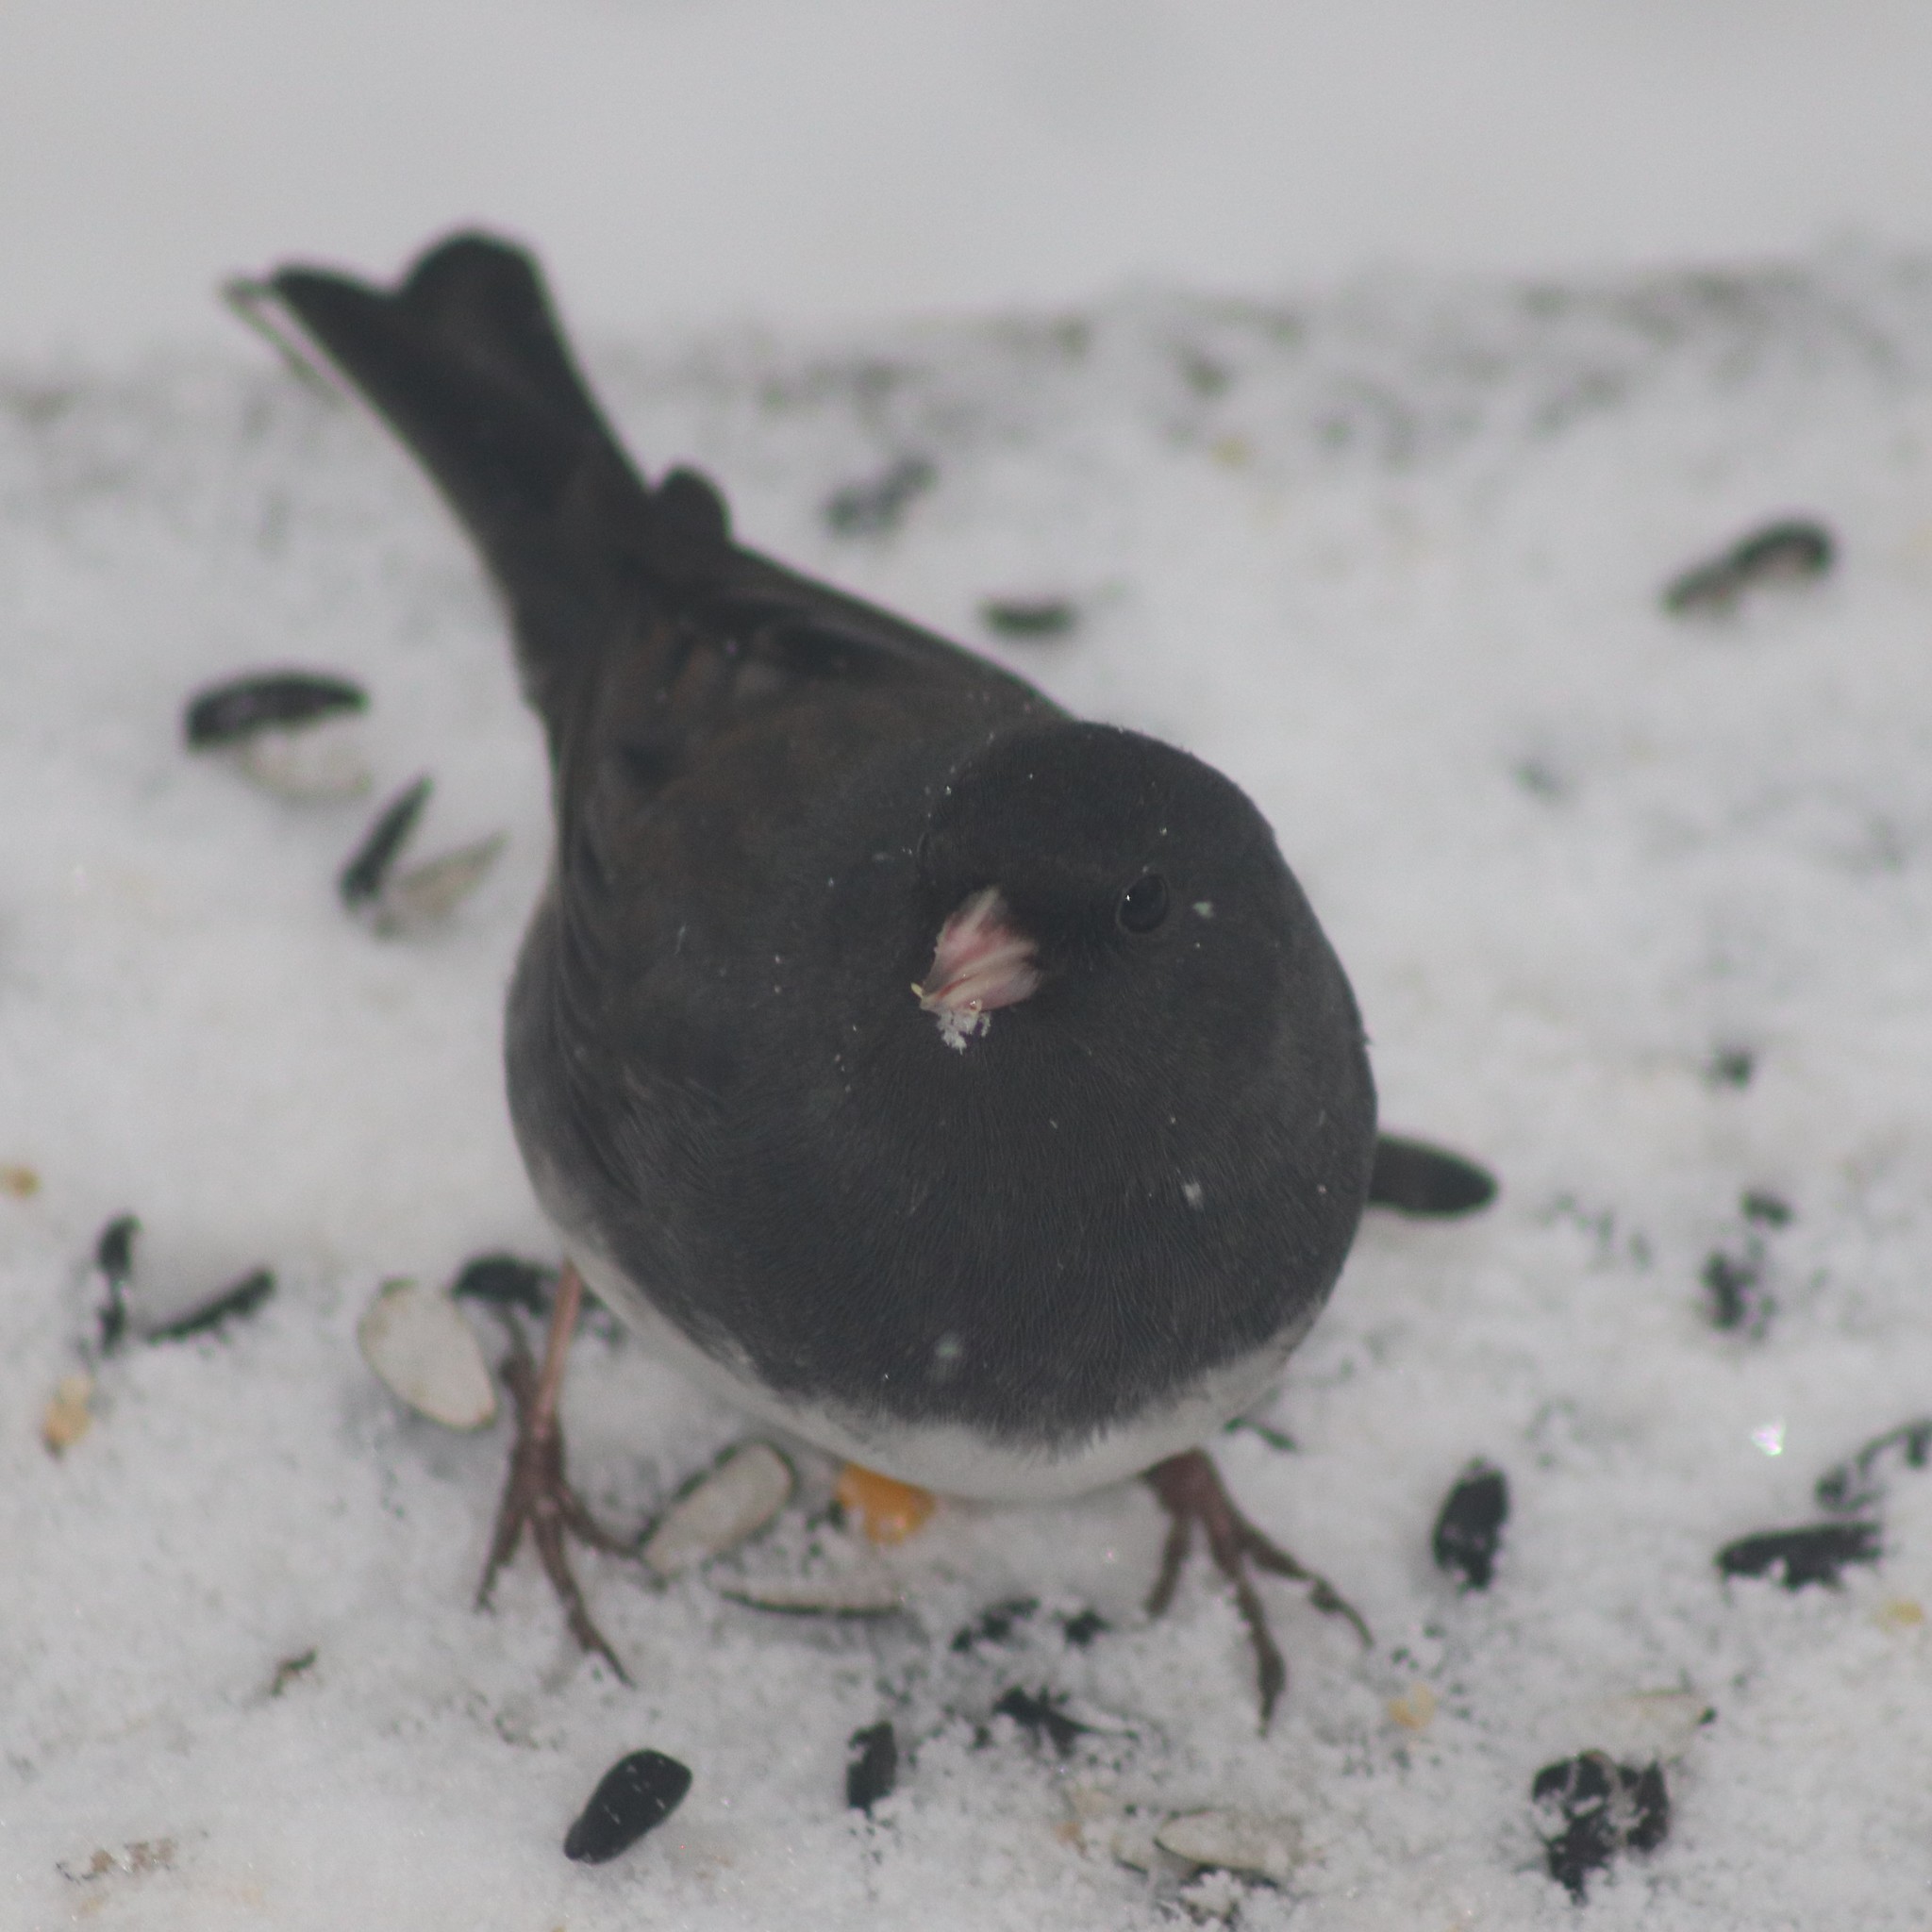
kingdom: Animalia
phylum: Chordata
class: Aves
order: Passeriformes
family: Passerellidae
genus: Junco
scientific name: Junco hyemalis
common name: Dark-eyed junco
